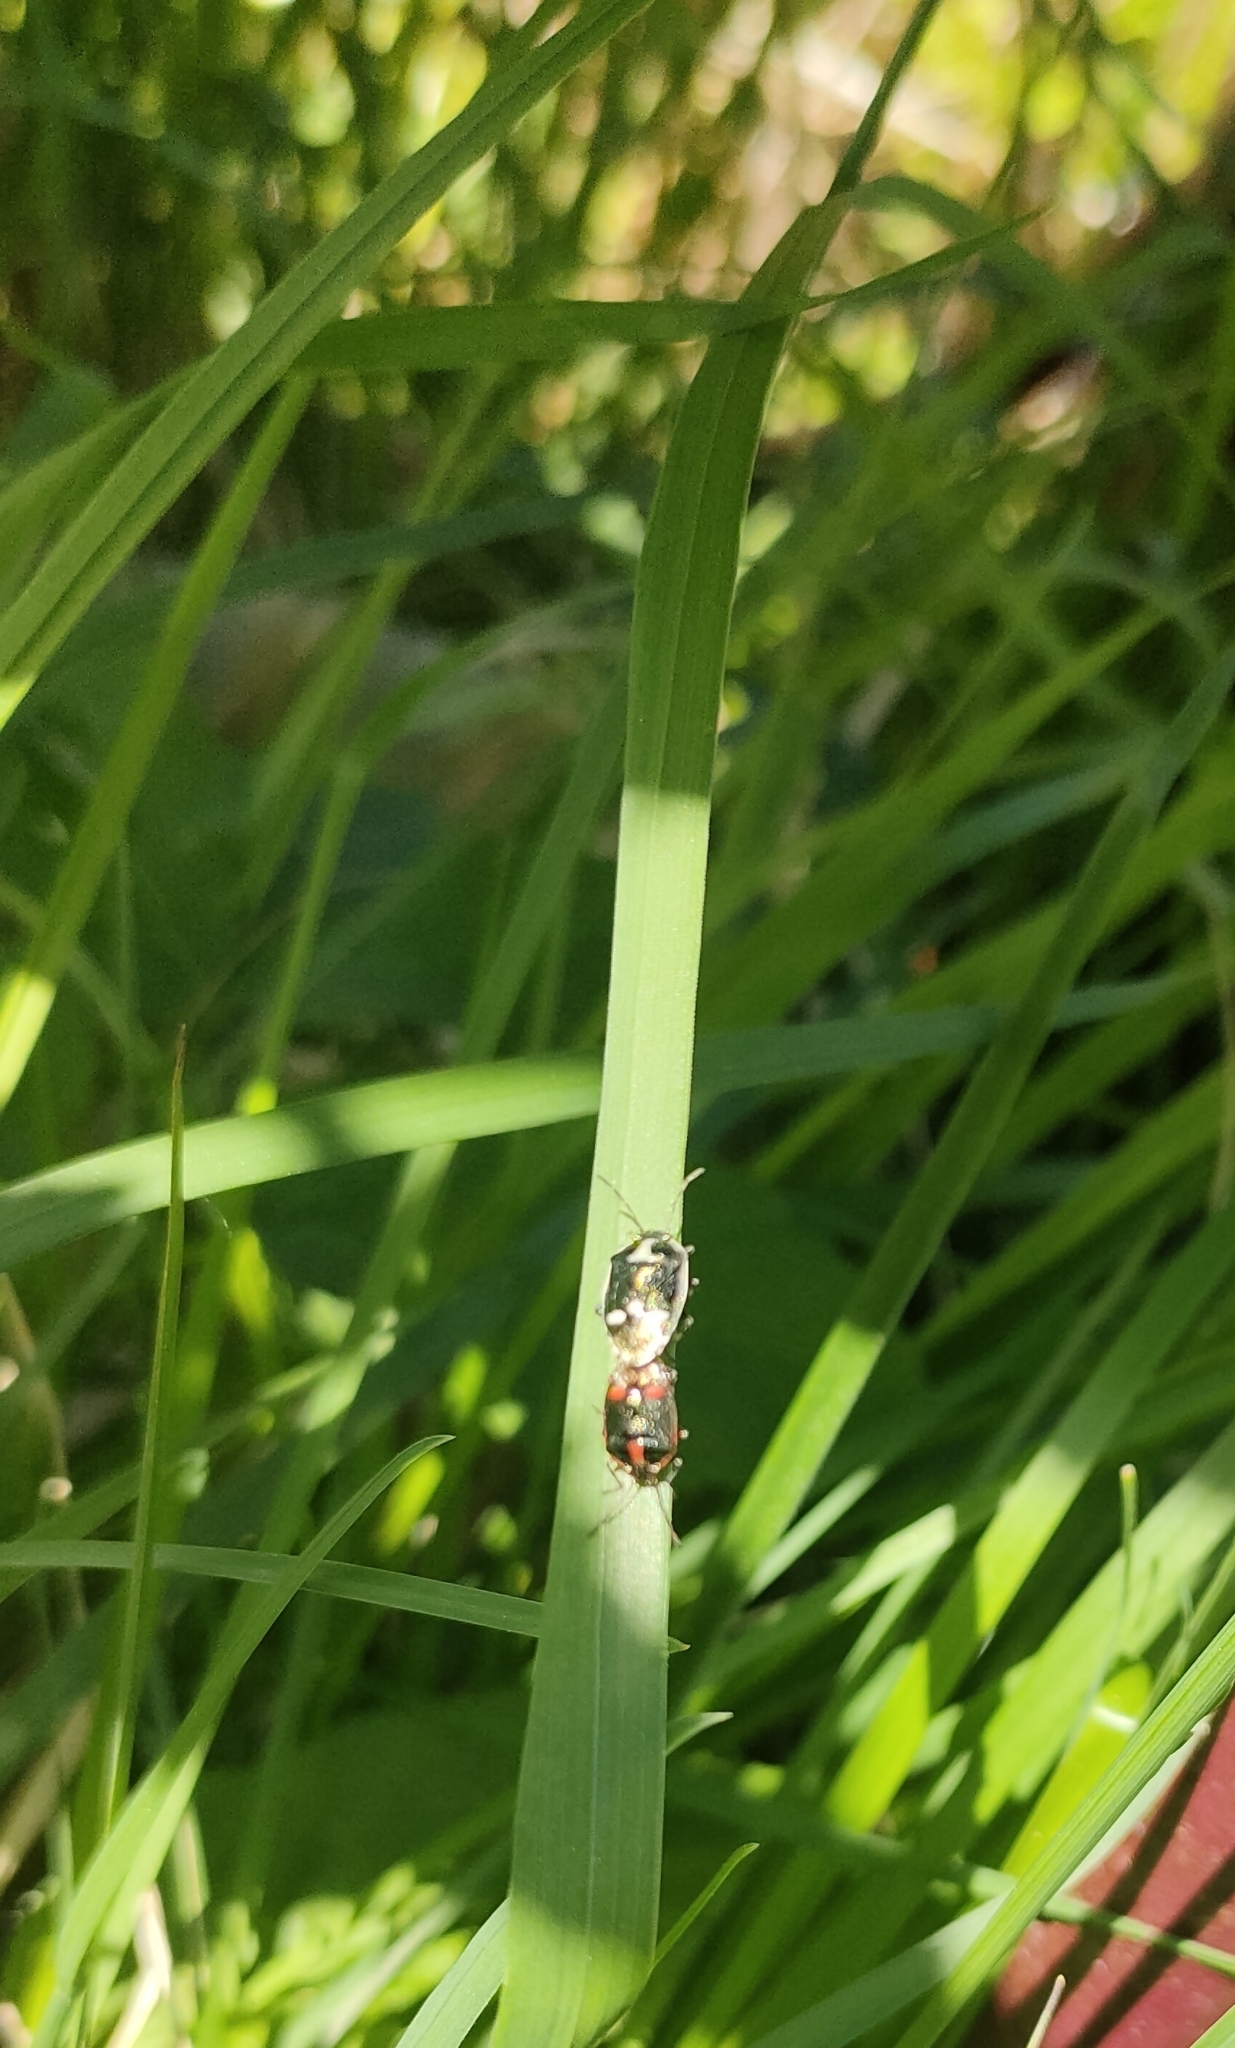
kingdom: Animalia
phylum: Arthropoda
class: Insecta
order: Hemiptera
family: Pentatomidae
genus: Eurydema
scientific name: Eurydema oleracea
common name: Cabbage bug
